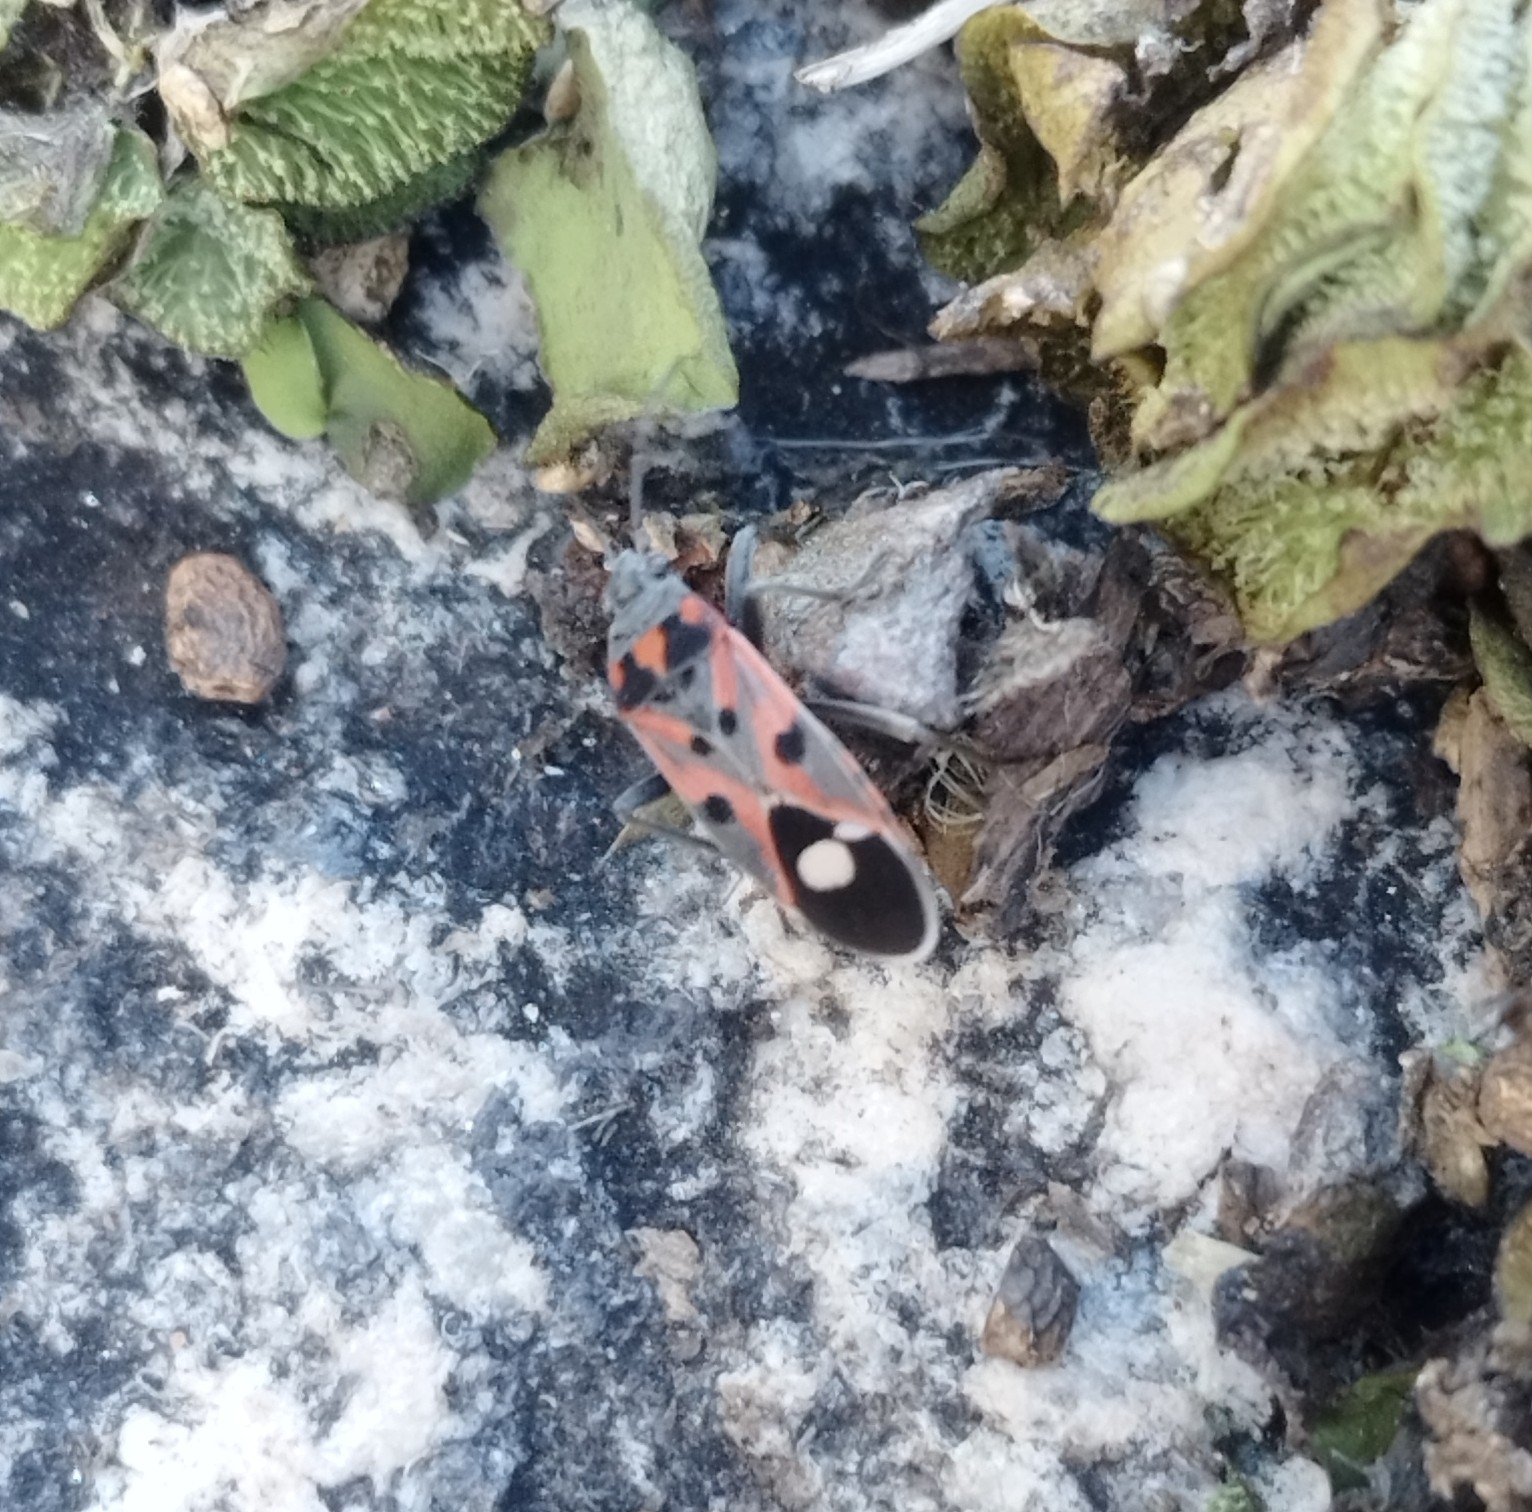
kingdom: Animalia
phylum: Arthropoda
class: Insecta
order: Hemiptera
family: Lygaeidae
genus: Lygaeus
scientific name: Lygaeus alboornatus
